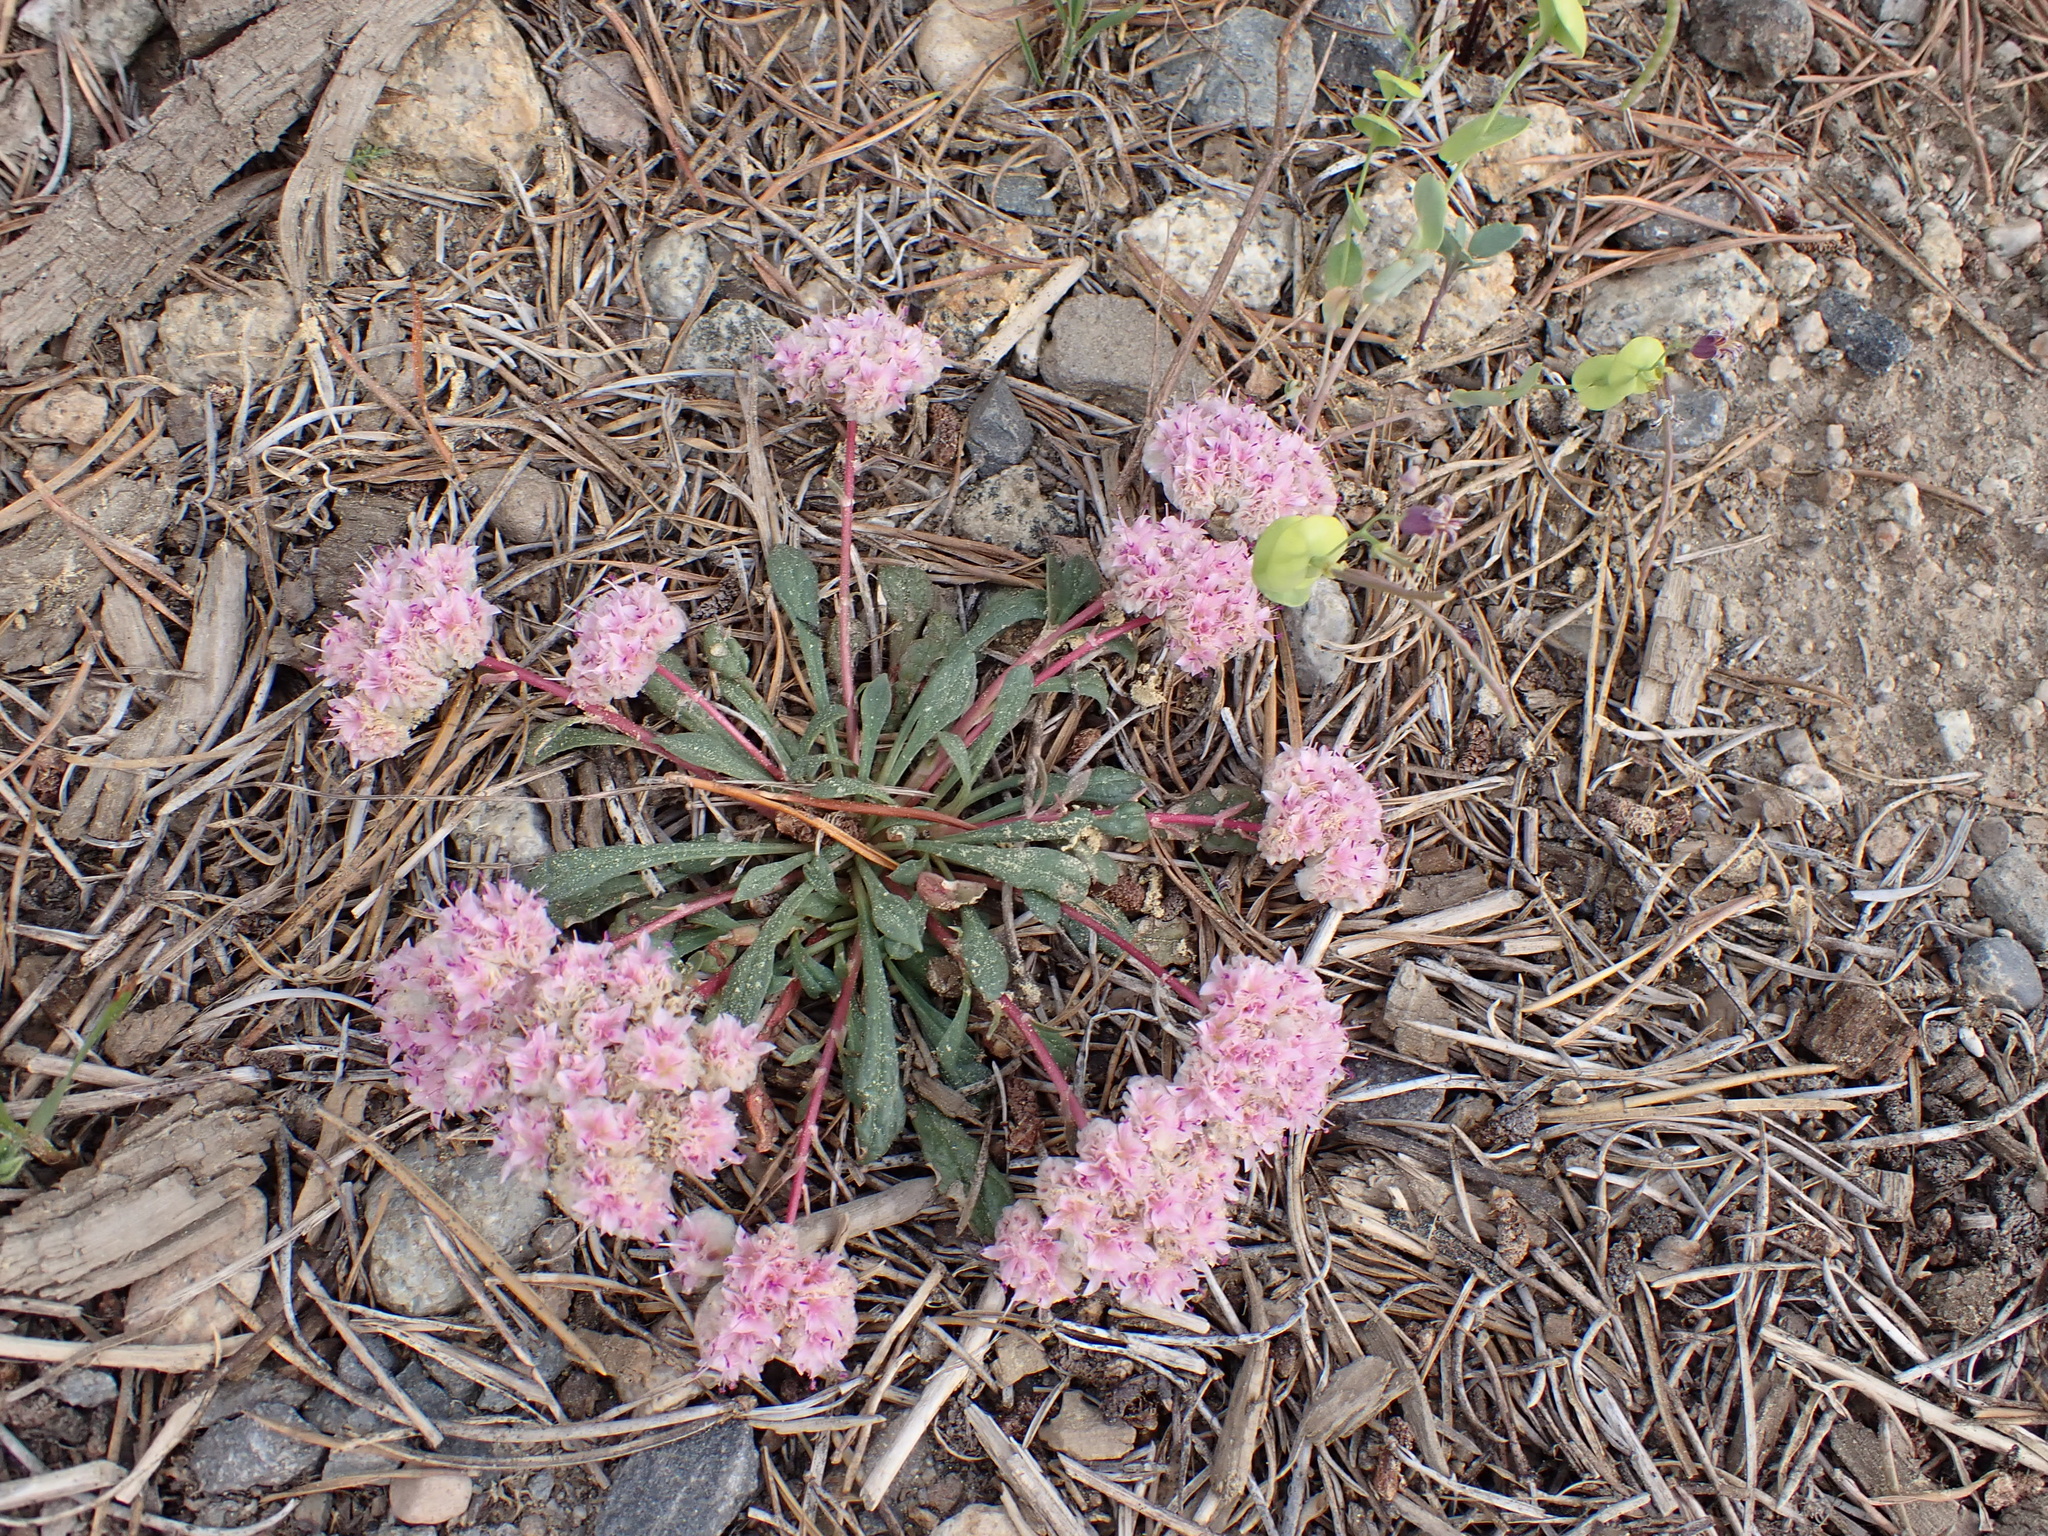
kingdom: Plantae
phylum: Tracheophyta
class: Magnoliopsida
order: Caryophyllales
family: Montiaceae
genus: Calyptridium
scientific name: Calyptridium monospermum
